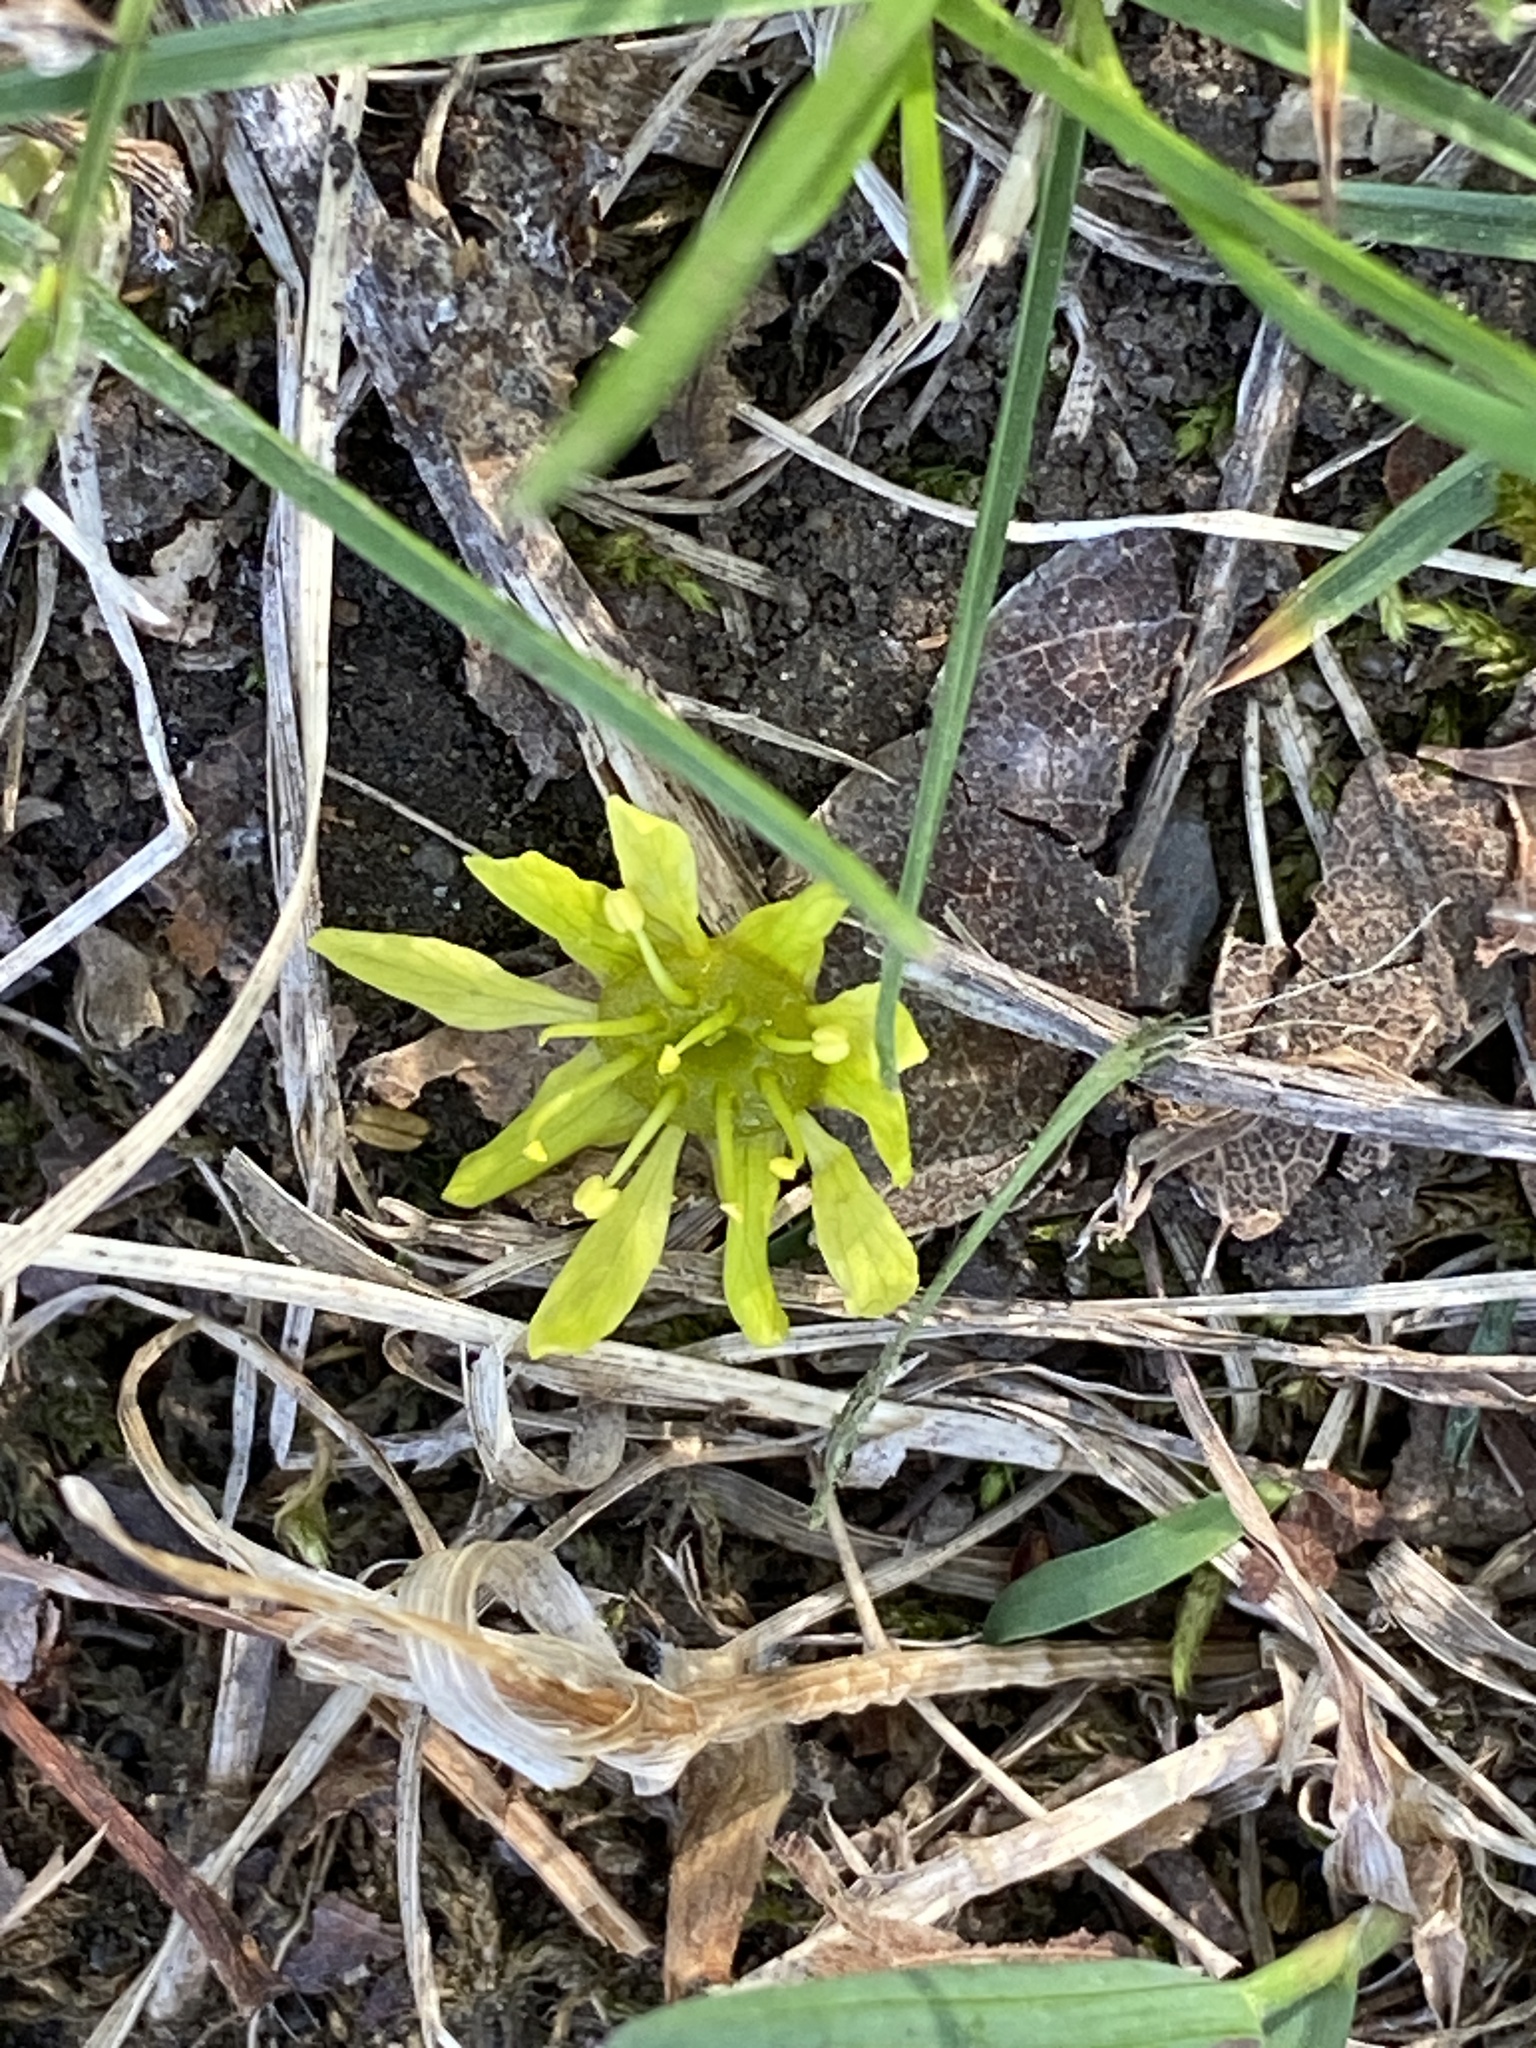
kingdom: Plantae
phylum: Tracheophyta
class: Magnoliopsida
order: Sapindales
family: Sapindaceae
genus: Acer
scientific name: Acer platanoides
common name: Norway maple
